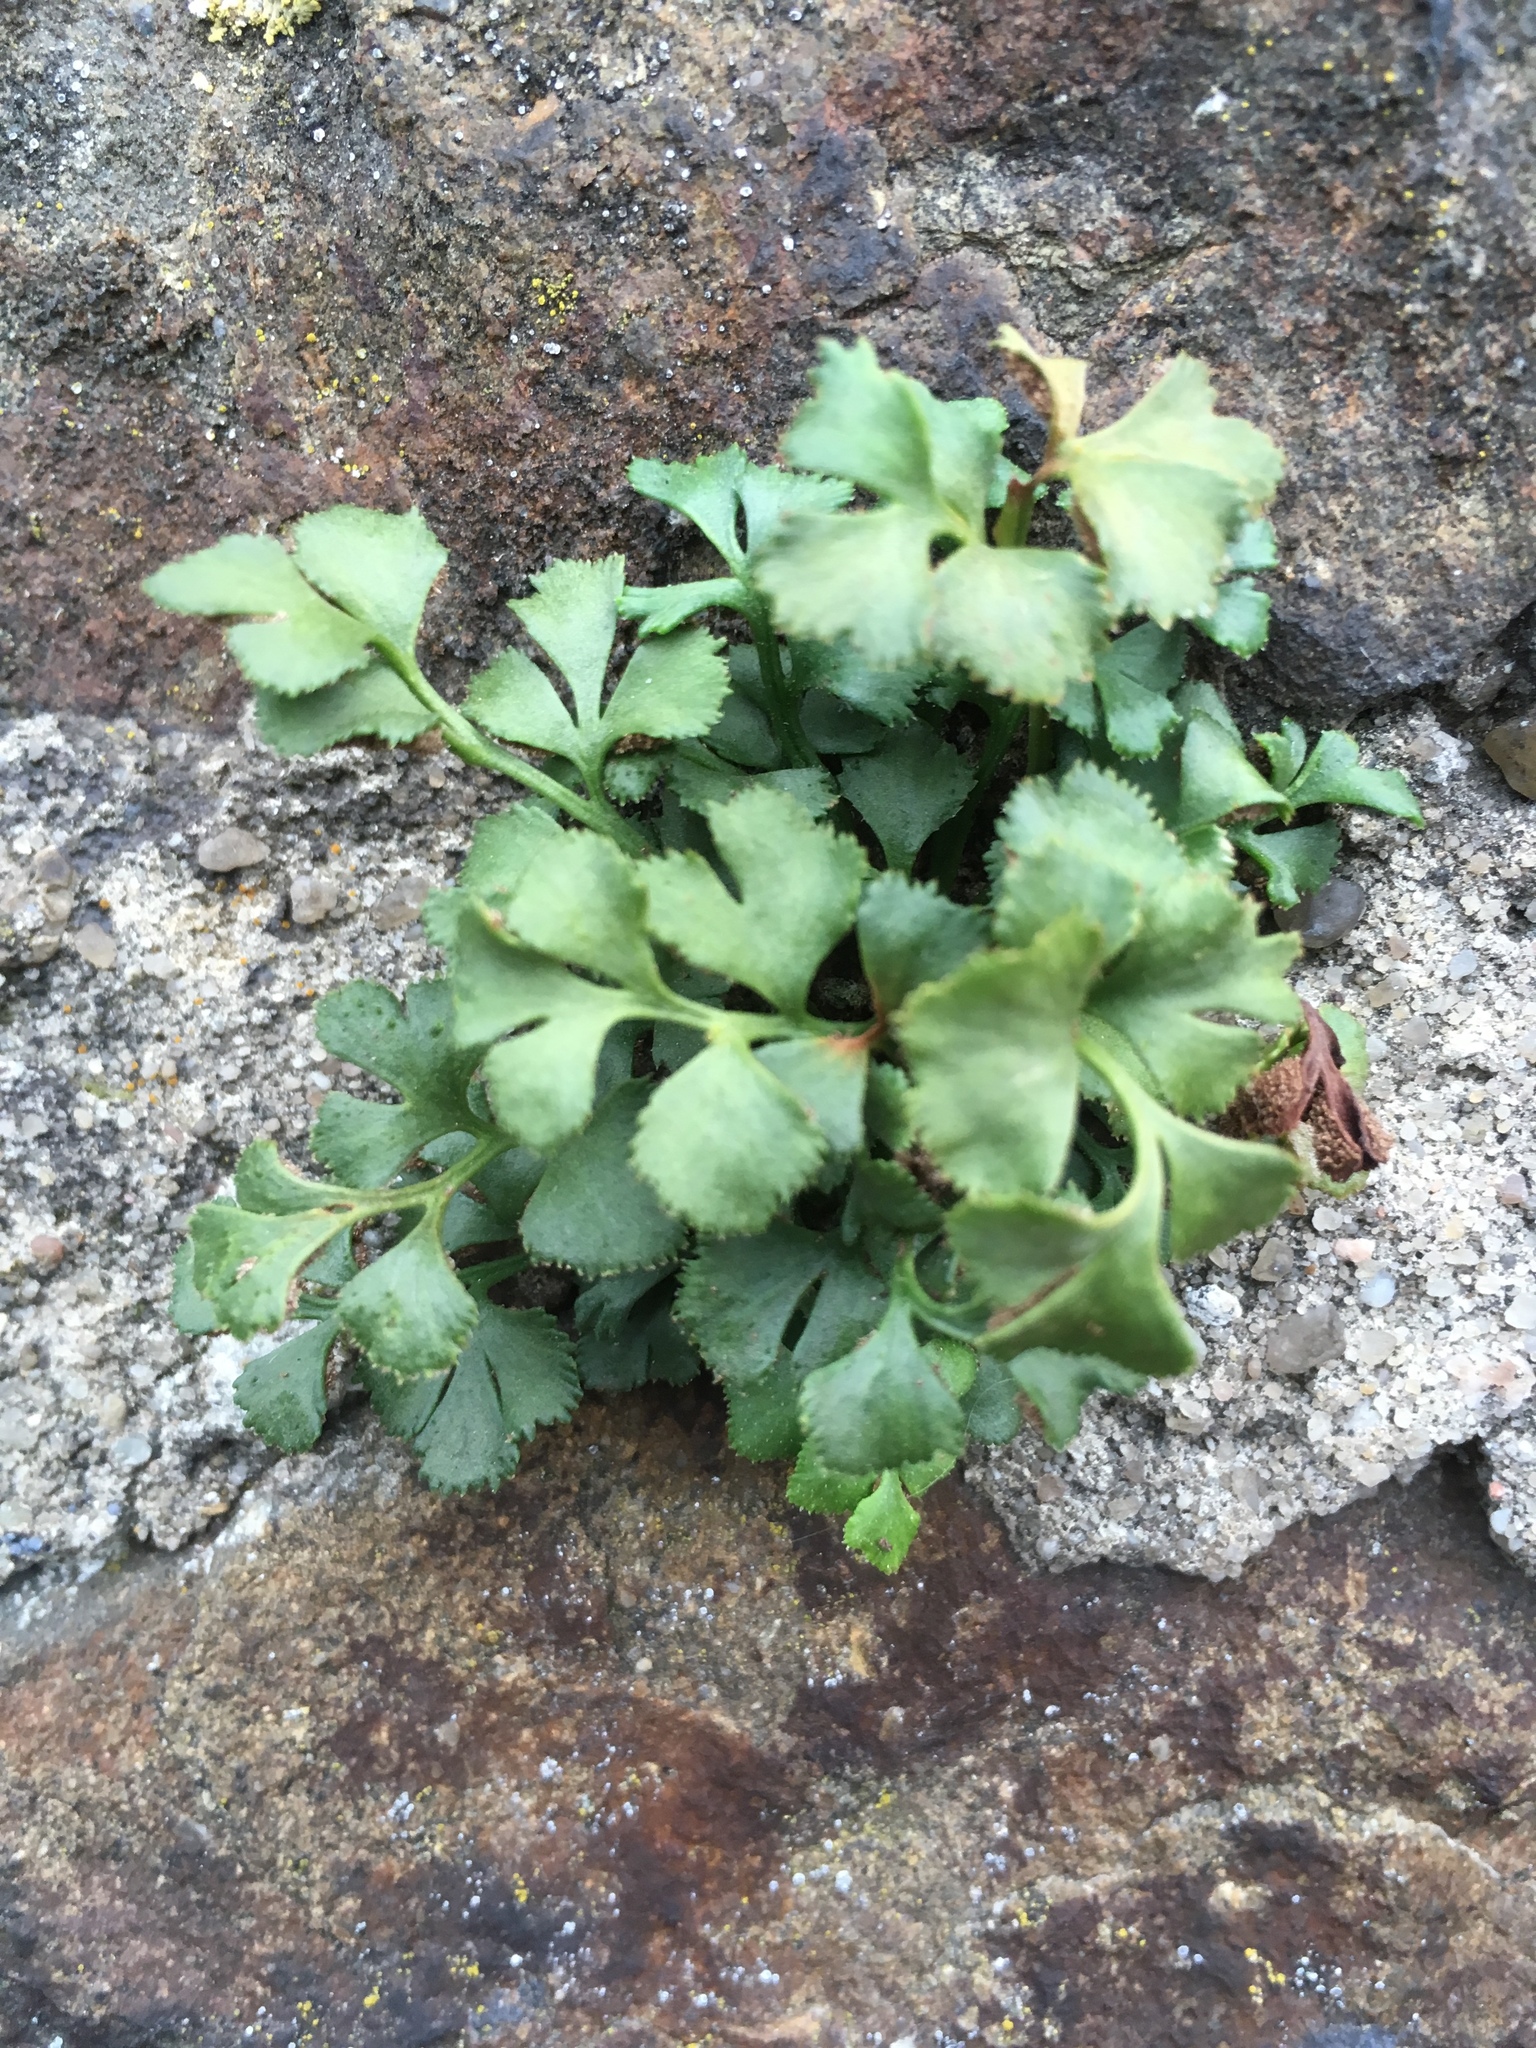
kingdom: Plantae
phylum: Tracheophyta
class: Polypodiopsida
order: Polypodiales
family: Aspleniaceae
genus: Asplenium
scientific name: Asplenium ruta-muraria
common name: Wall-rue
